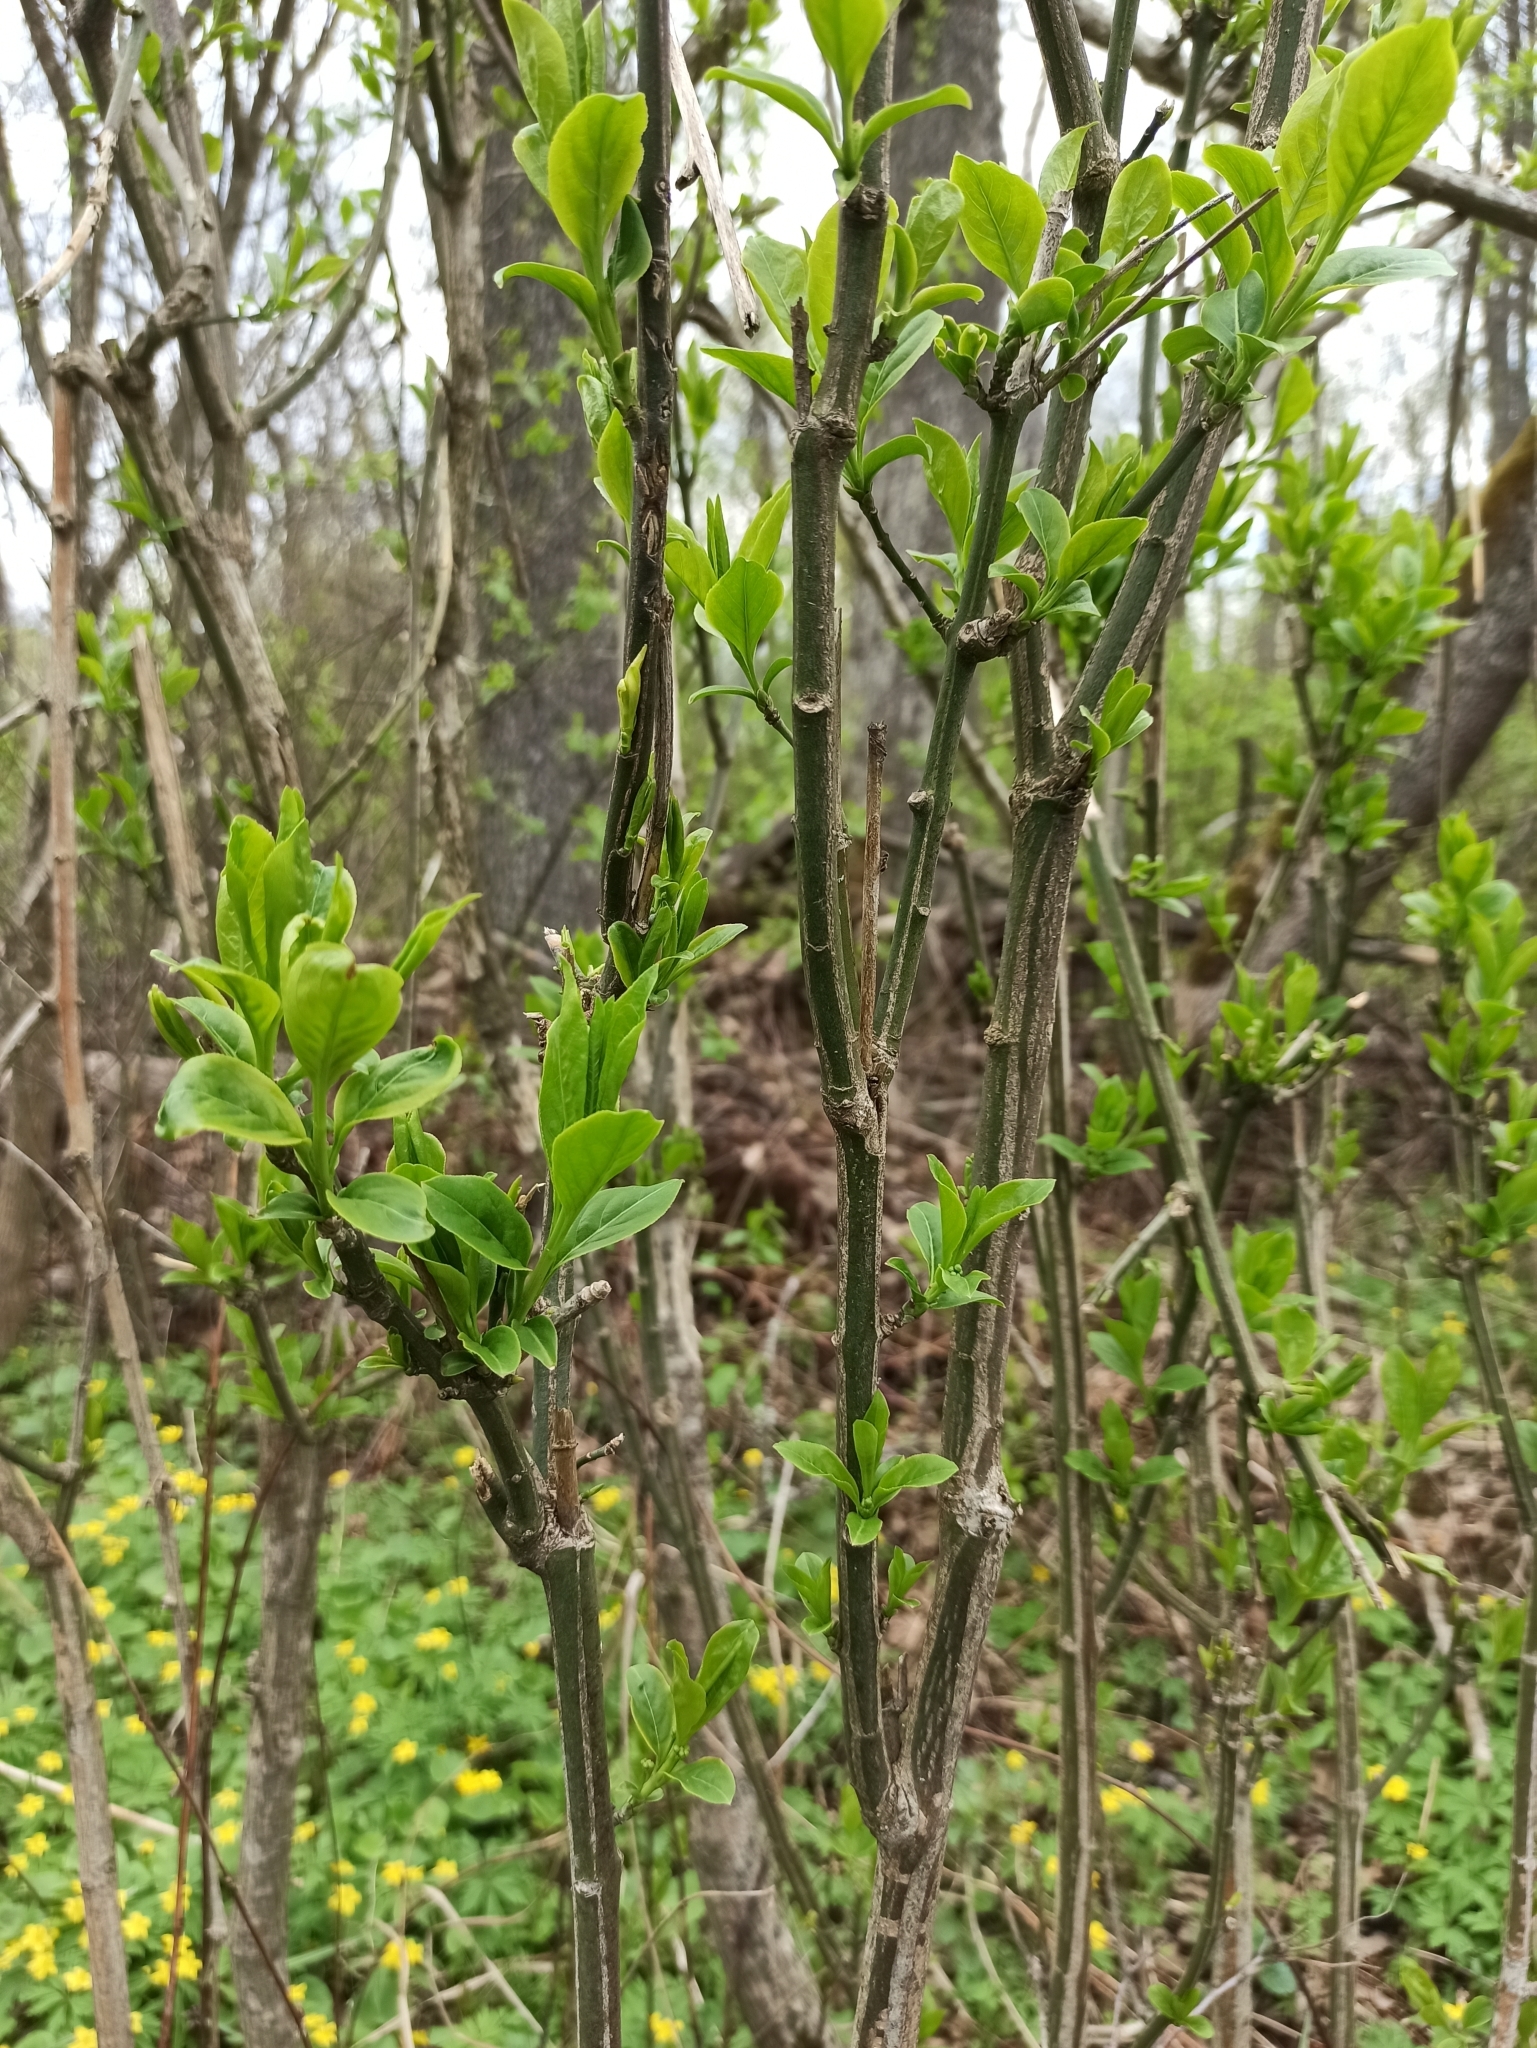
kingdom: Plantae
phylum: Tracheophyta
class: Magnoliopsida
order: Celastrales
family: Celastraceae
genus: Euonymus
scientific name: Euonymus europaeus
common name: Spindle
